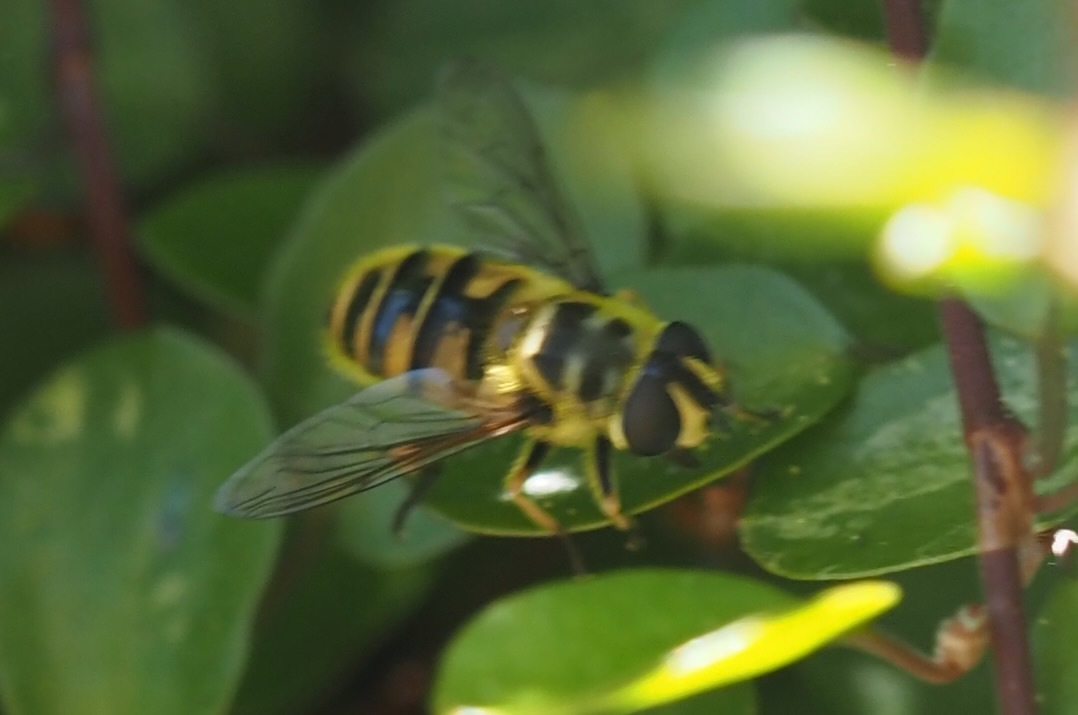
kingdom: Animalia
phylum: Arthropoda
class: Insecta
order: Diptera
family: Syrphidae
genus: Myathropa
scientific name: Myathropa florea
